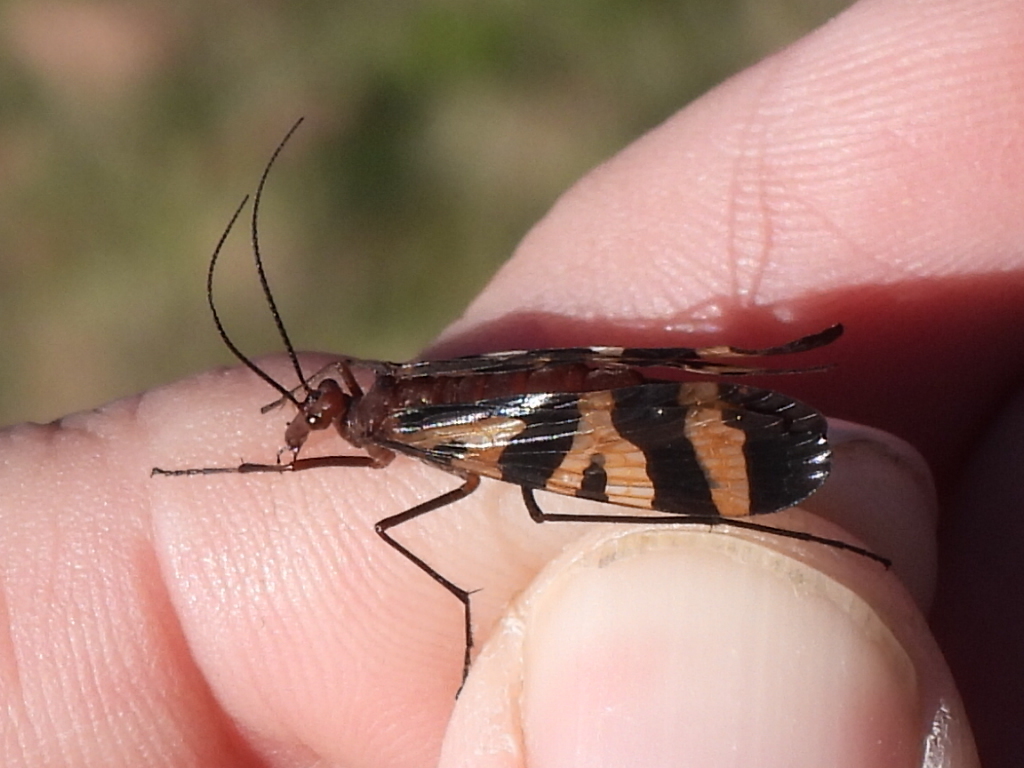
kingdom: Animalia
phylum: Arthropoda
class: Insecta
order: Mecoptera
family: Panorpidae
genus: Panorpa
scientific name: Panorpa nuptialis
